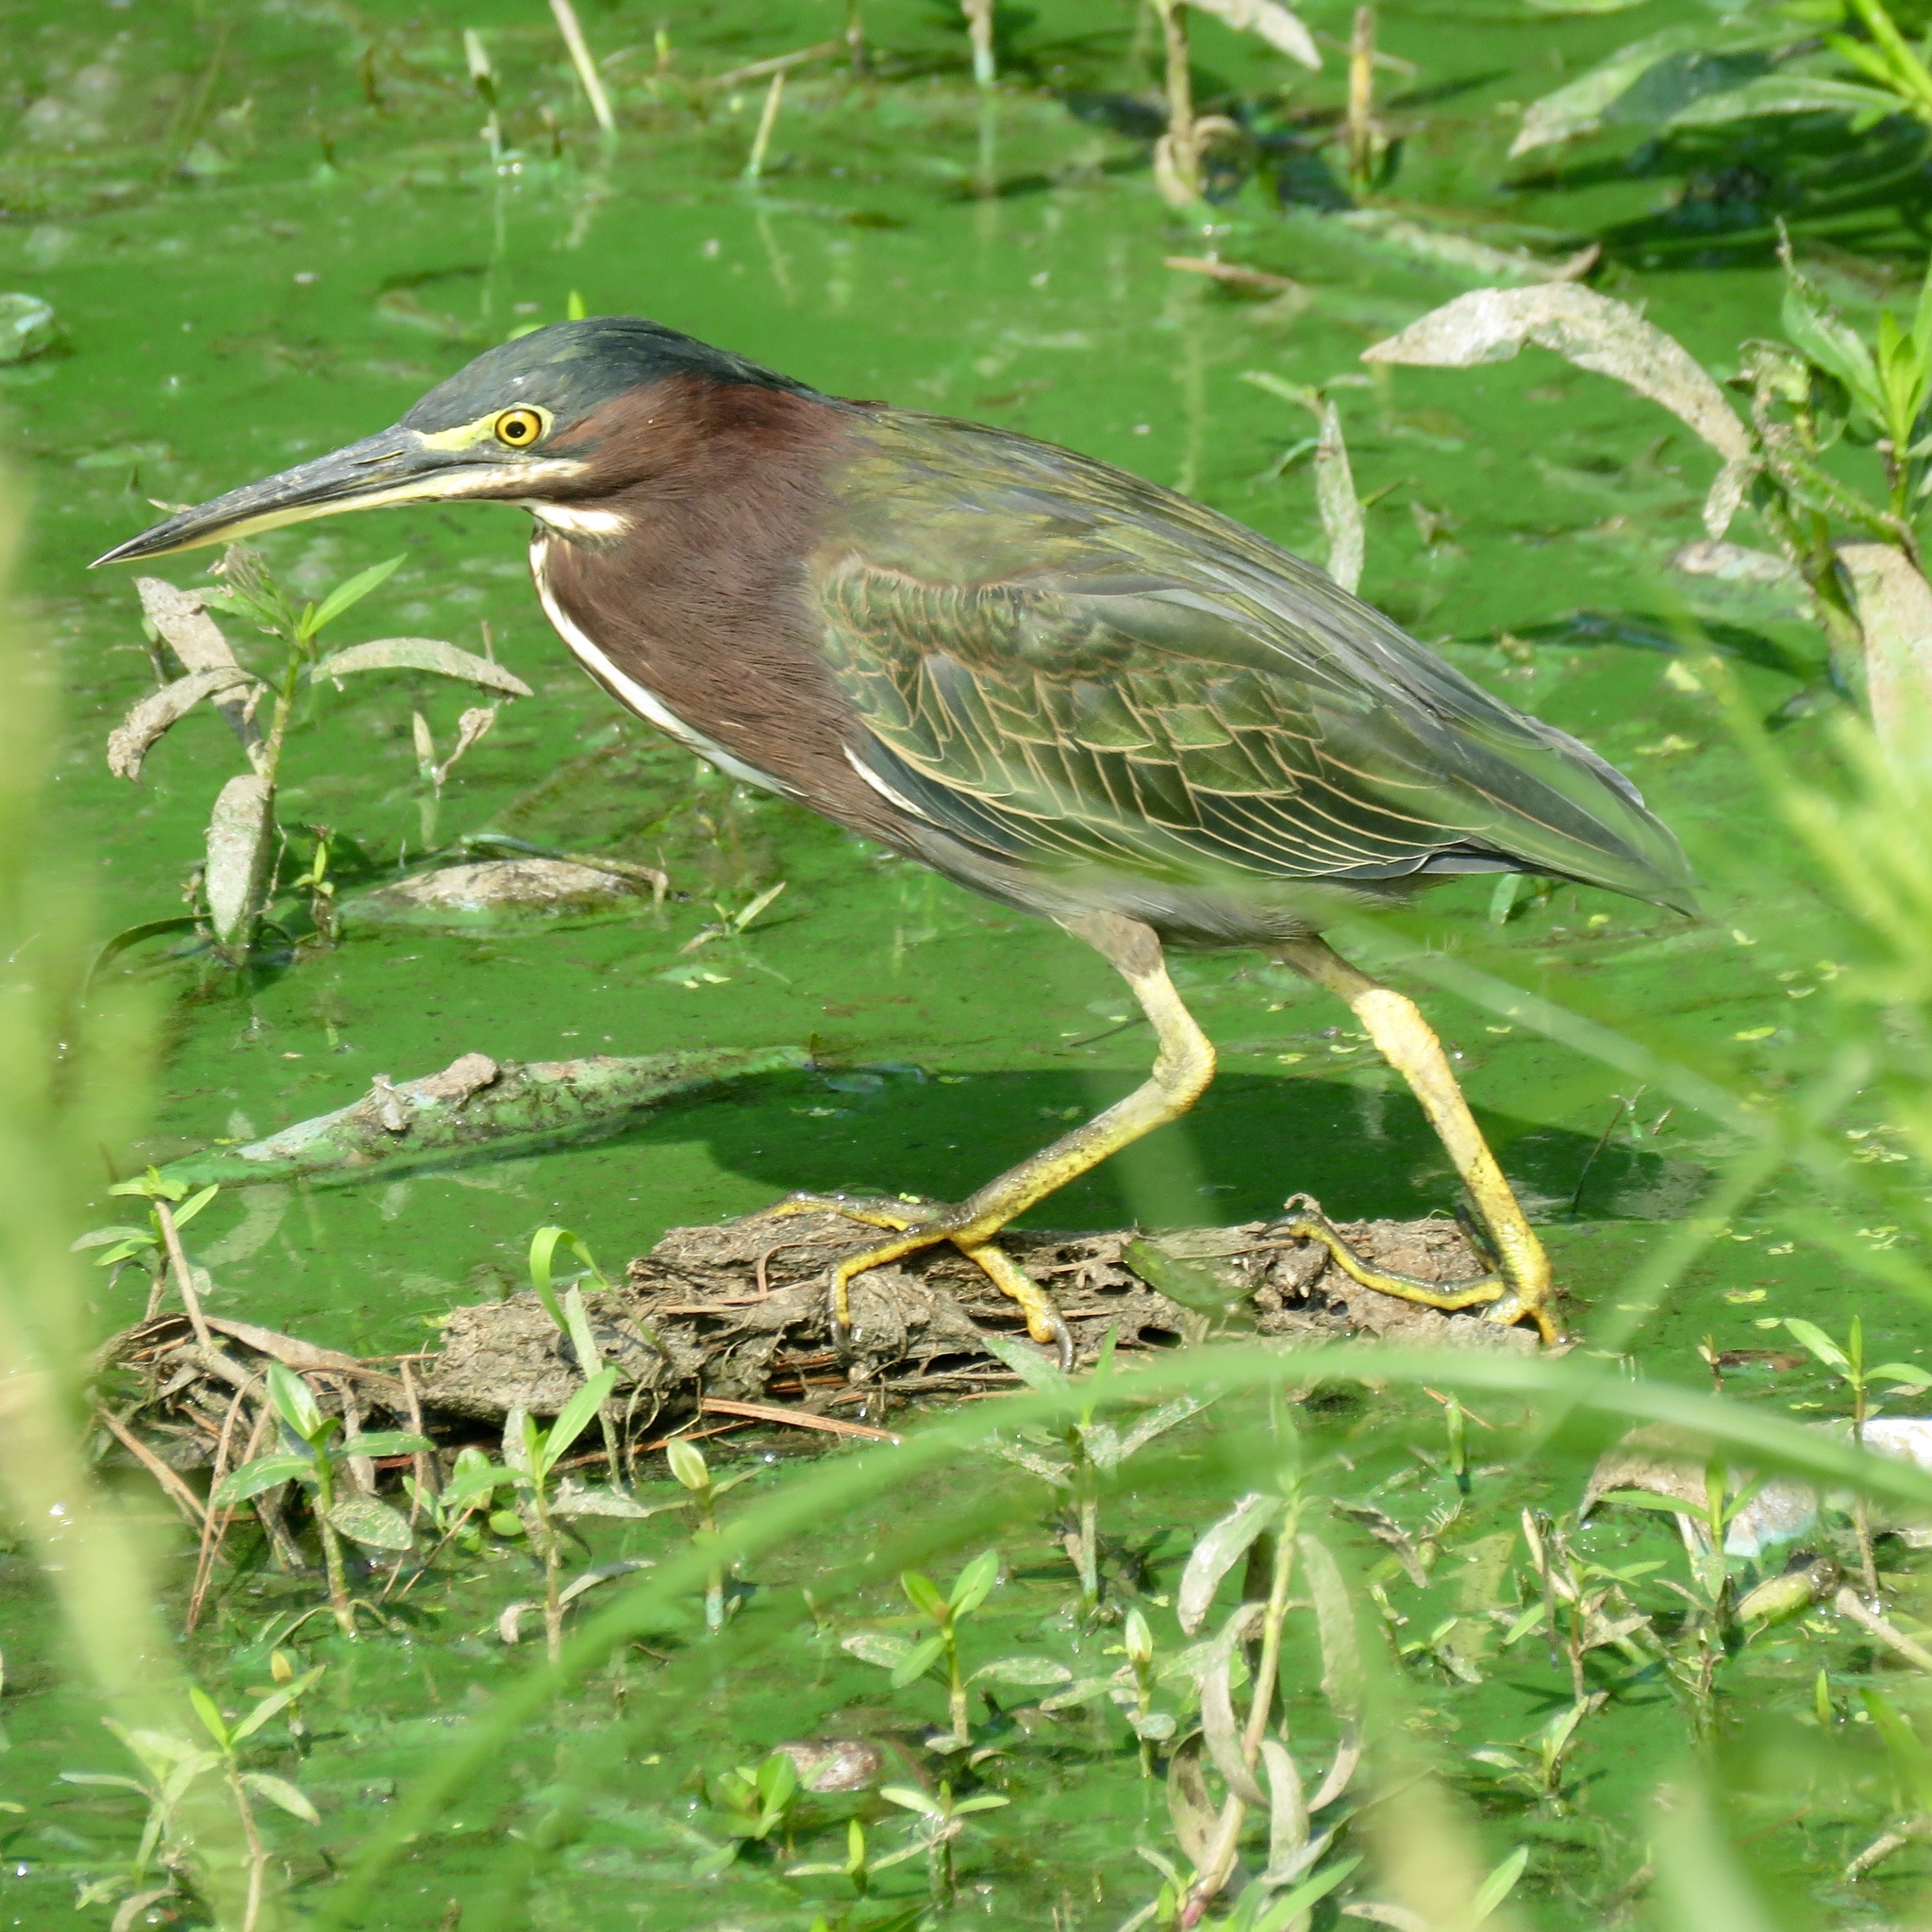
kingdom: Animalia
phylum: Chordata
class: Aves
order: Pelecaniformes
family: Ardeidae
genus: Butorides
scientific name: Butorides virescens
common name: Green heron
